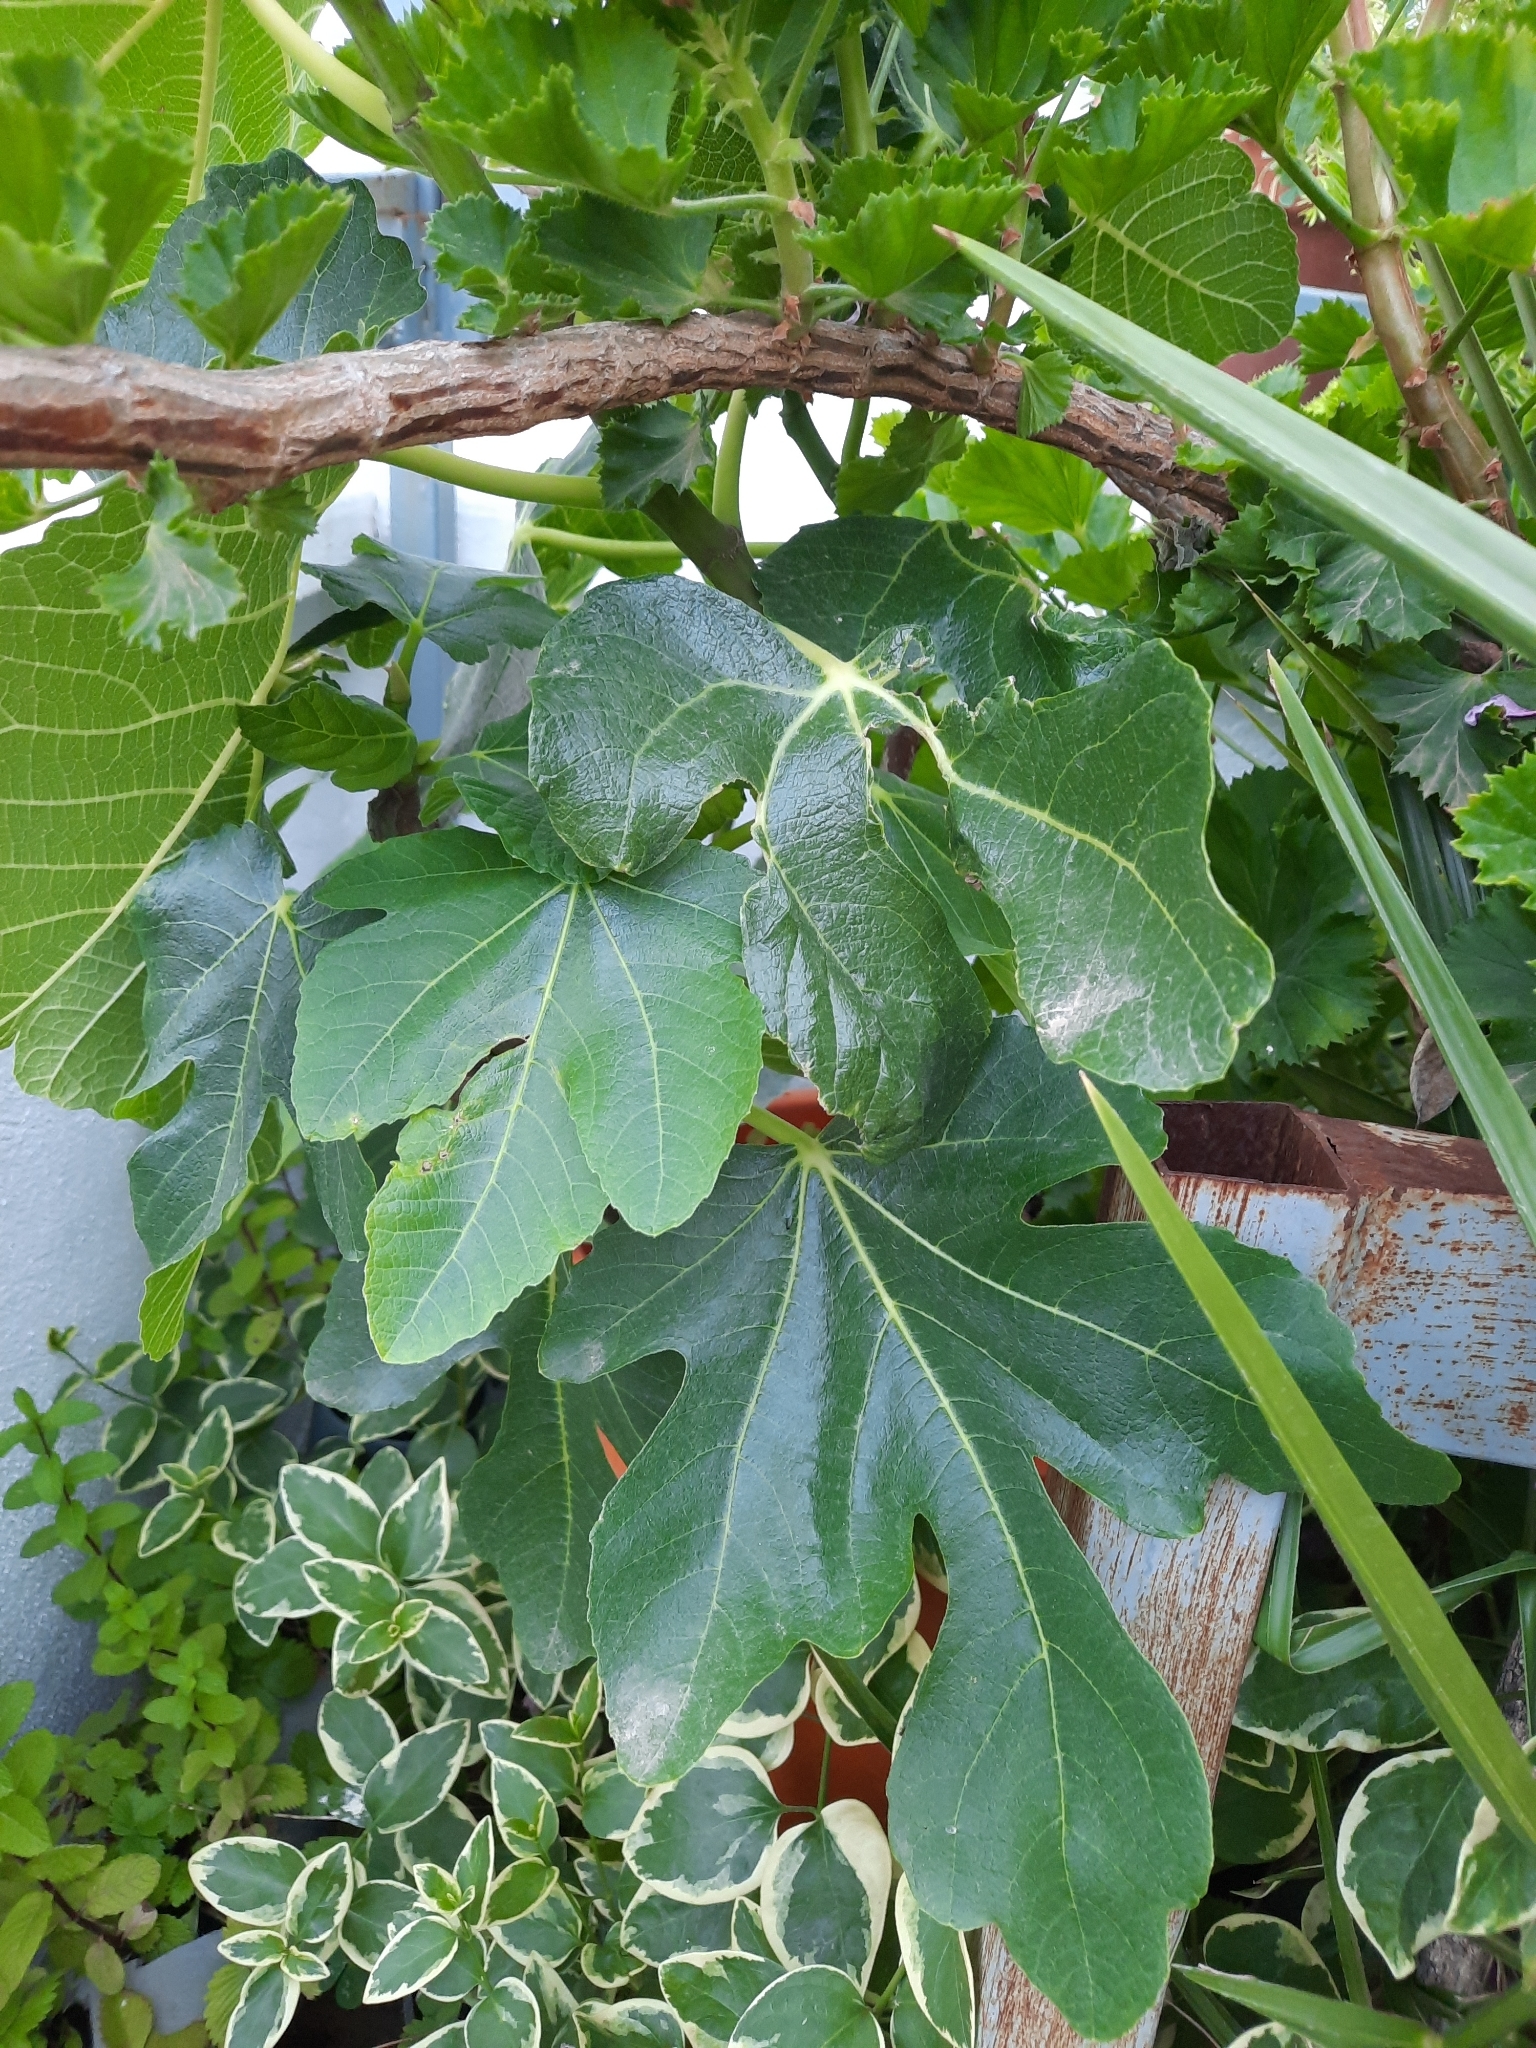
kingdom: Plantae
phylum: Tracheophyta
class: Magnoliopsida
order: Rosales
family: Moraceae
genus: Ficus
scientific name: Ficus carica
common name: Fig
